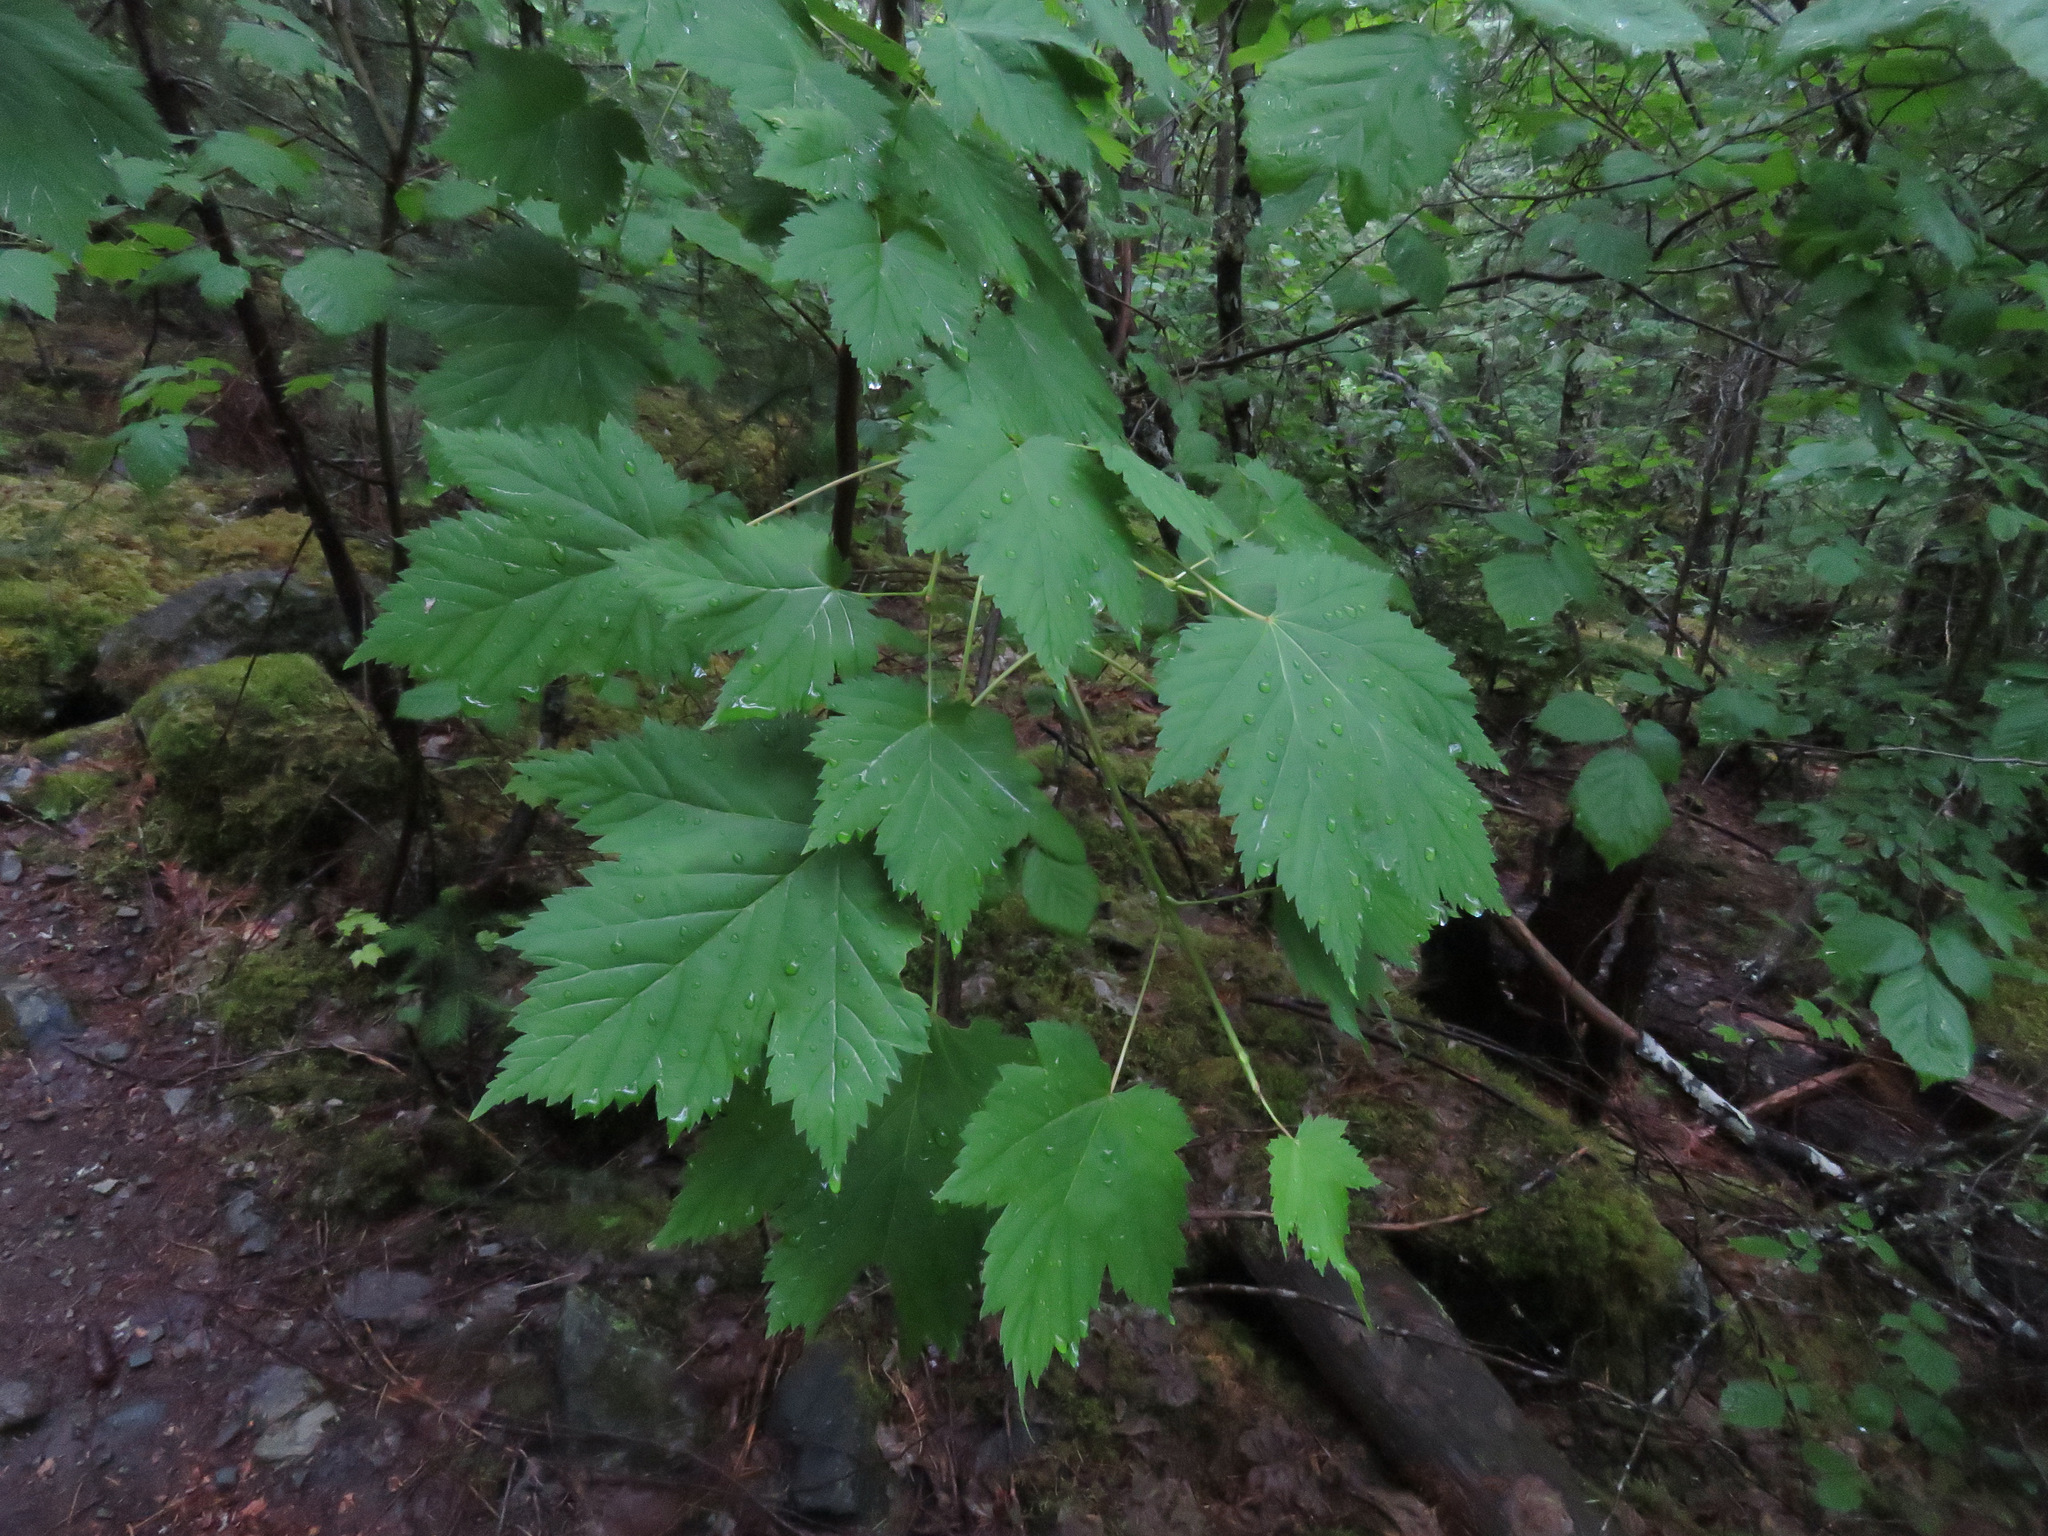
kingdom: Plantae
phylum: Tracheophyta
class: Magnoliopsida
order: Sapindales
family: Sapindaceae
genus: Acer
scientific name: Acer glabrum
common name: Rocky mountain maple
